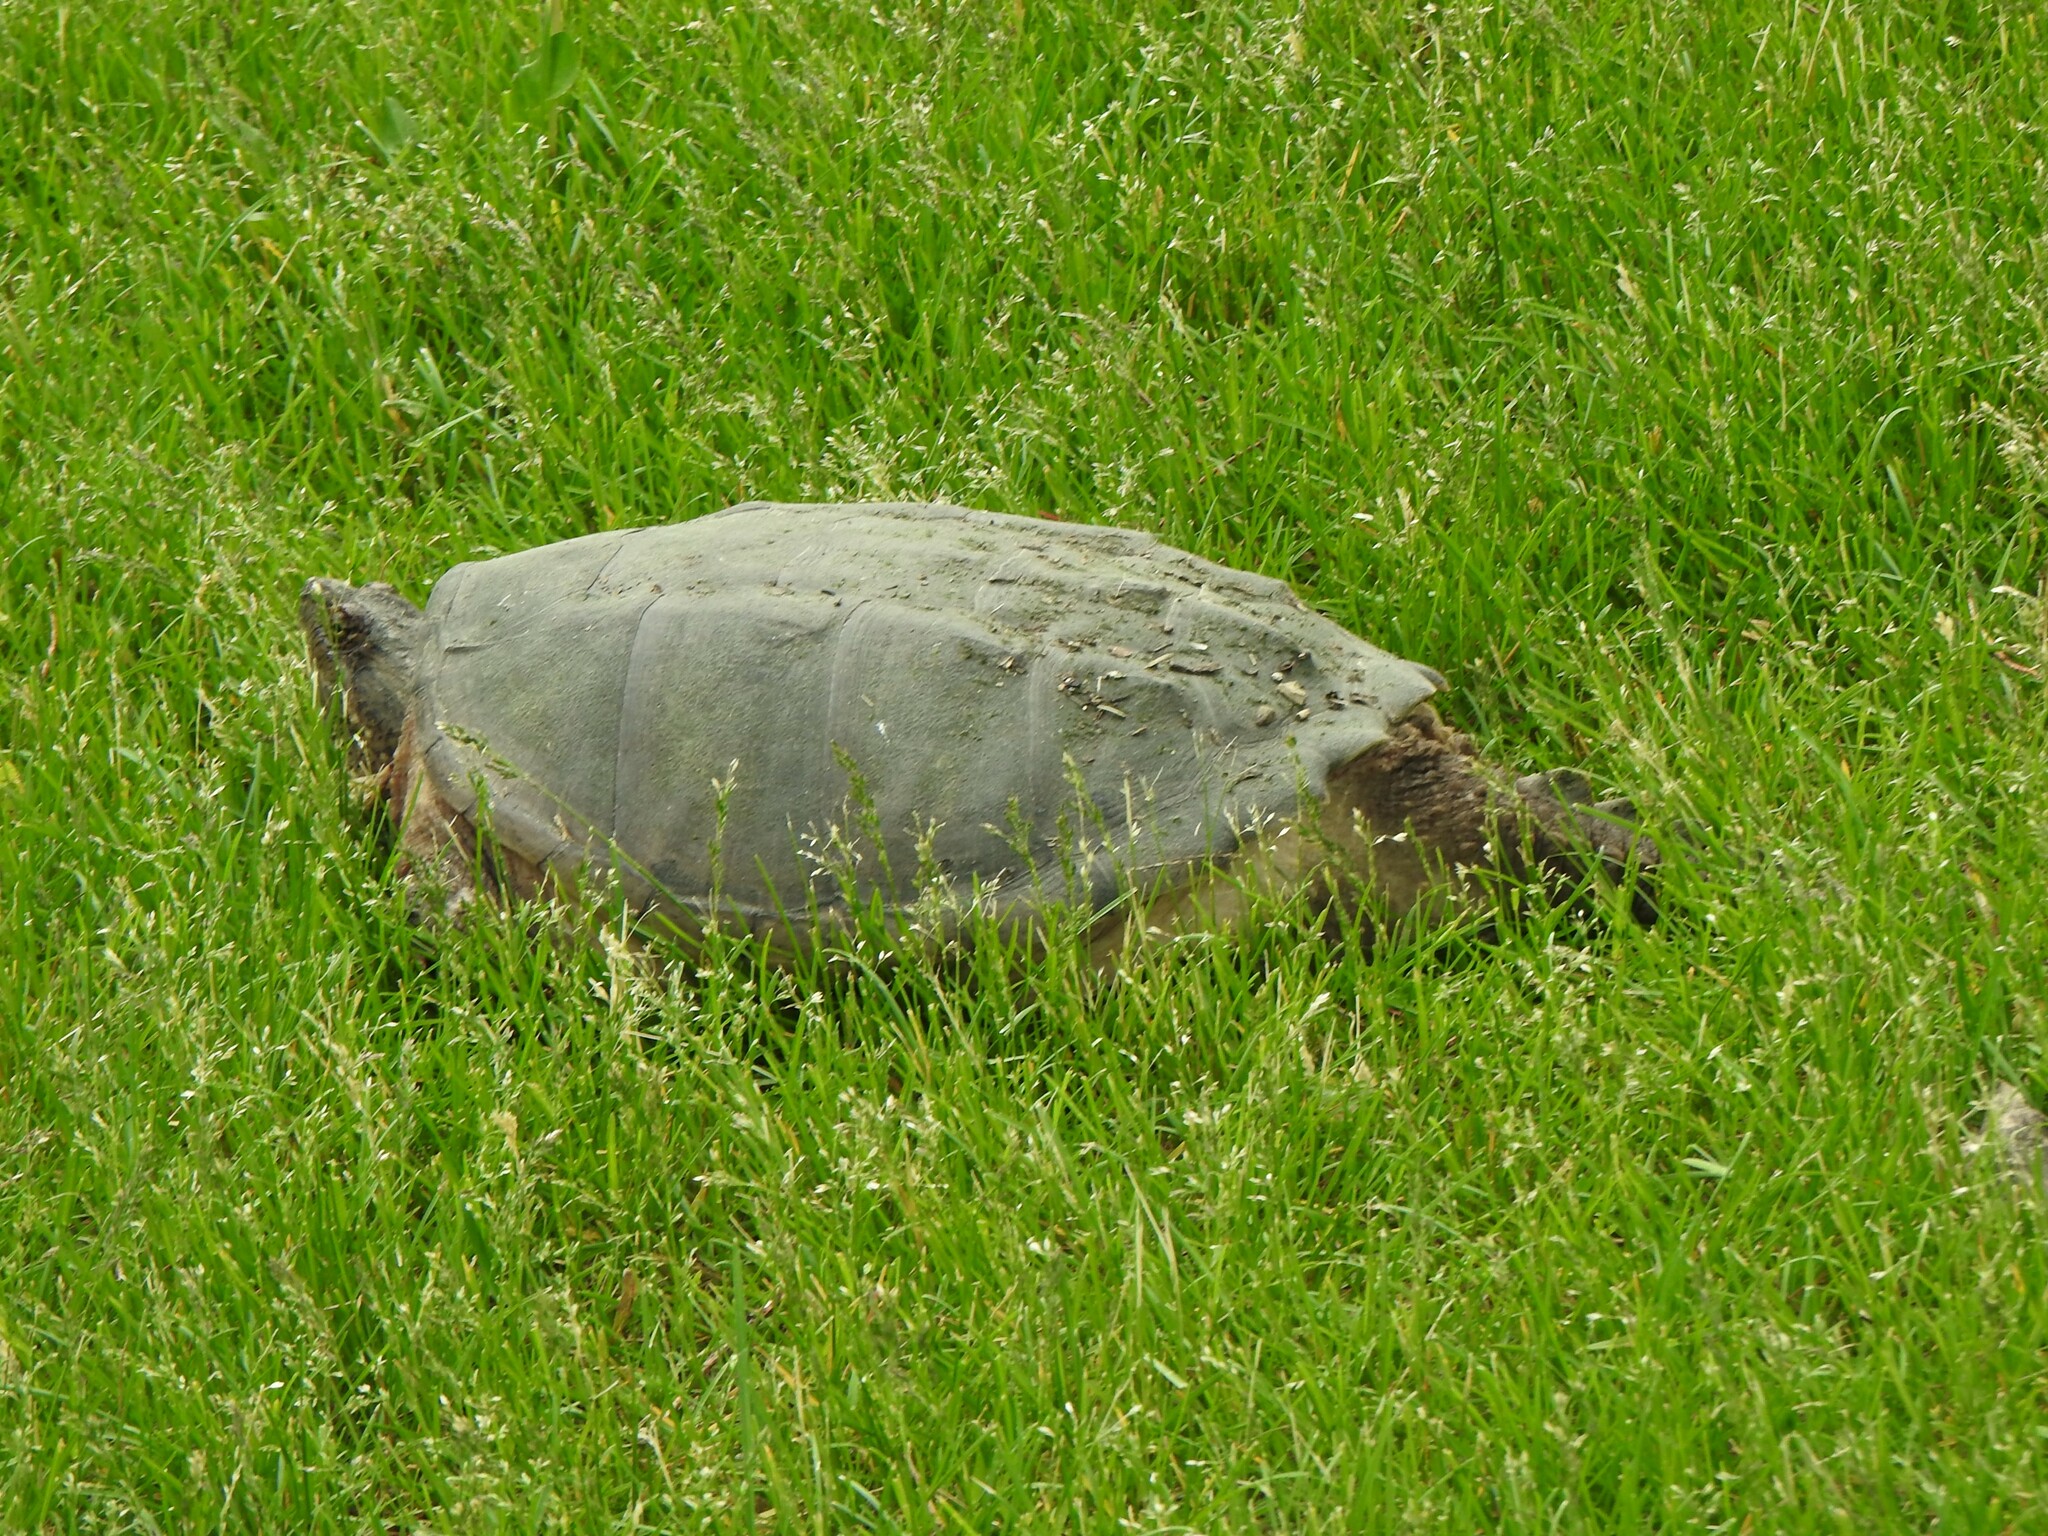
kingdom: Animalia
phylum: Chordata
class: Testudines
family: Chelydridae
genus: Chelydra
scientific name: Chelydra serpentina
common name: Common snapping turtle
